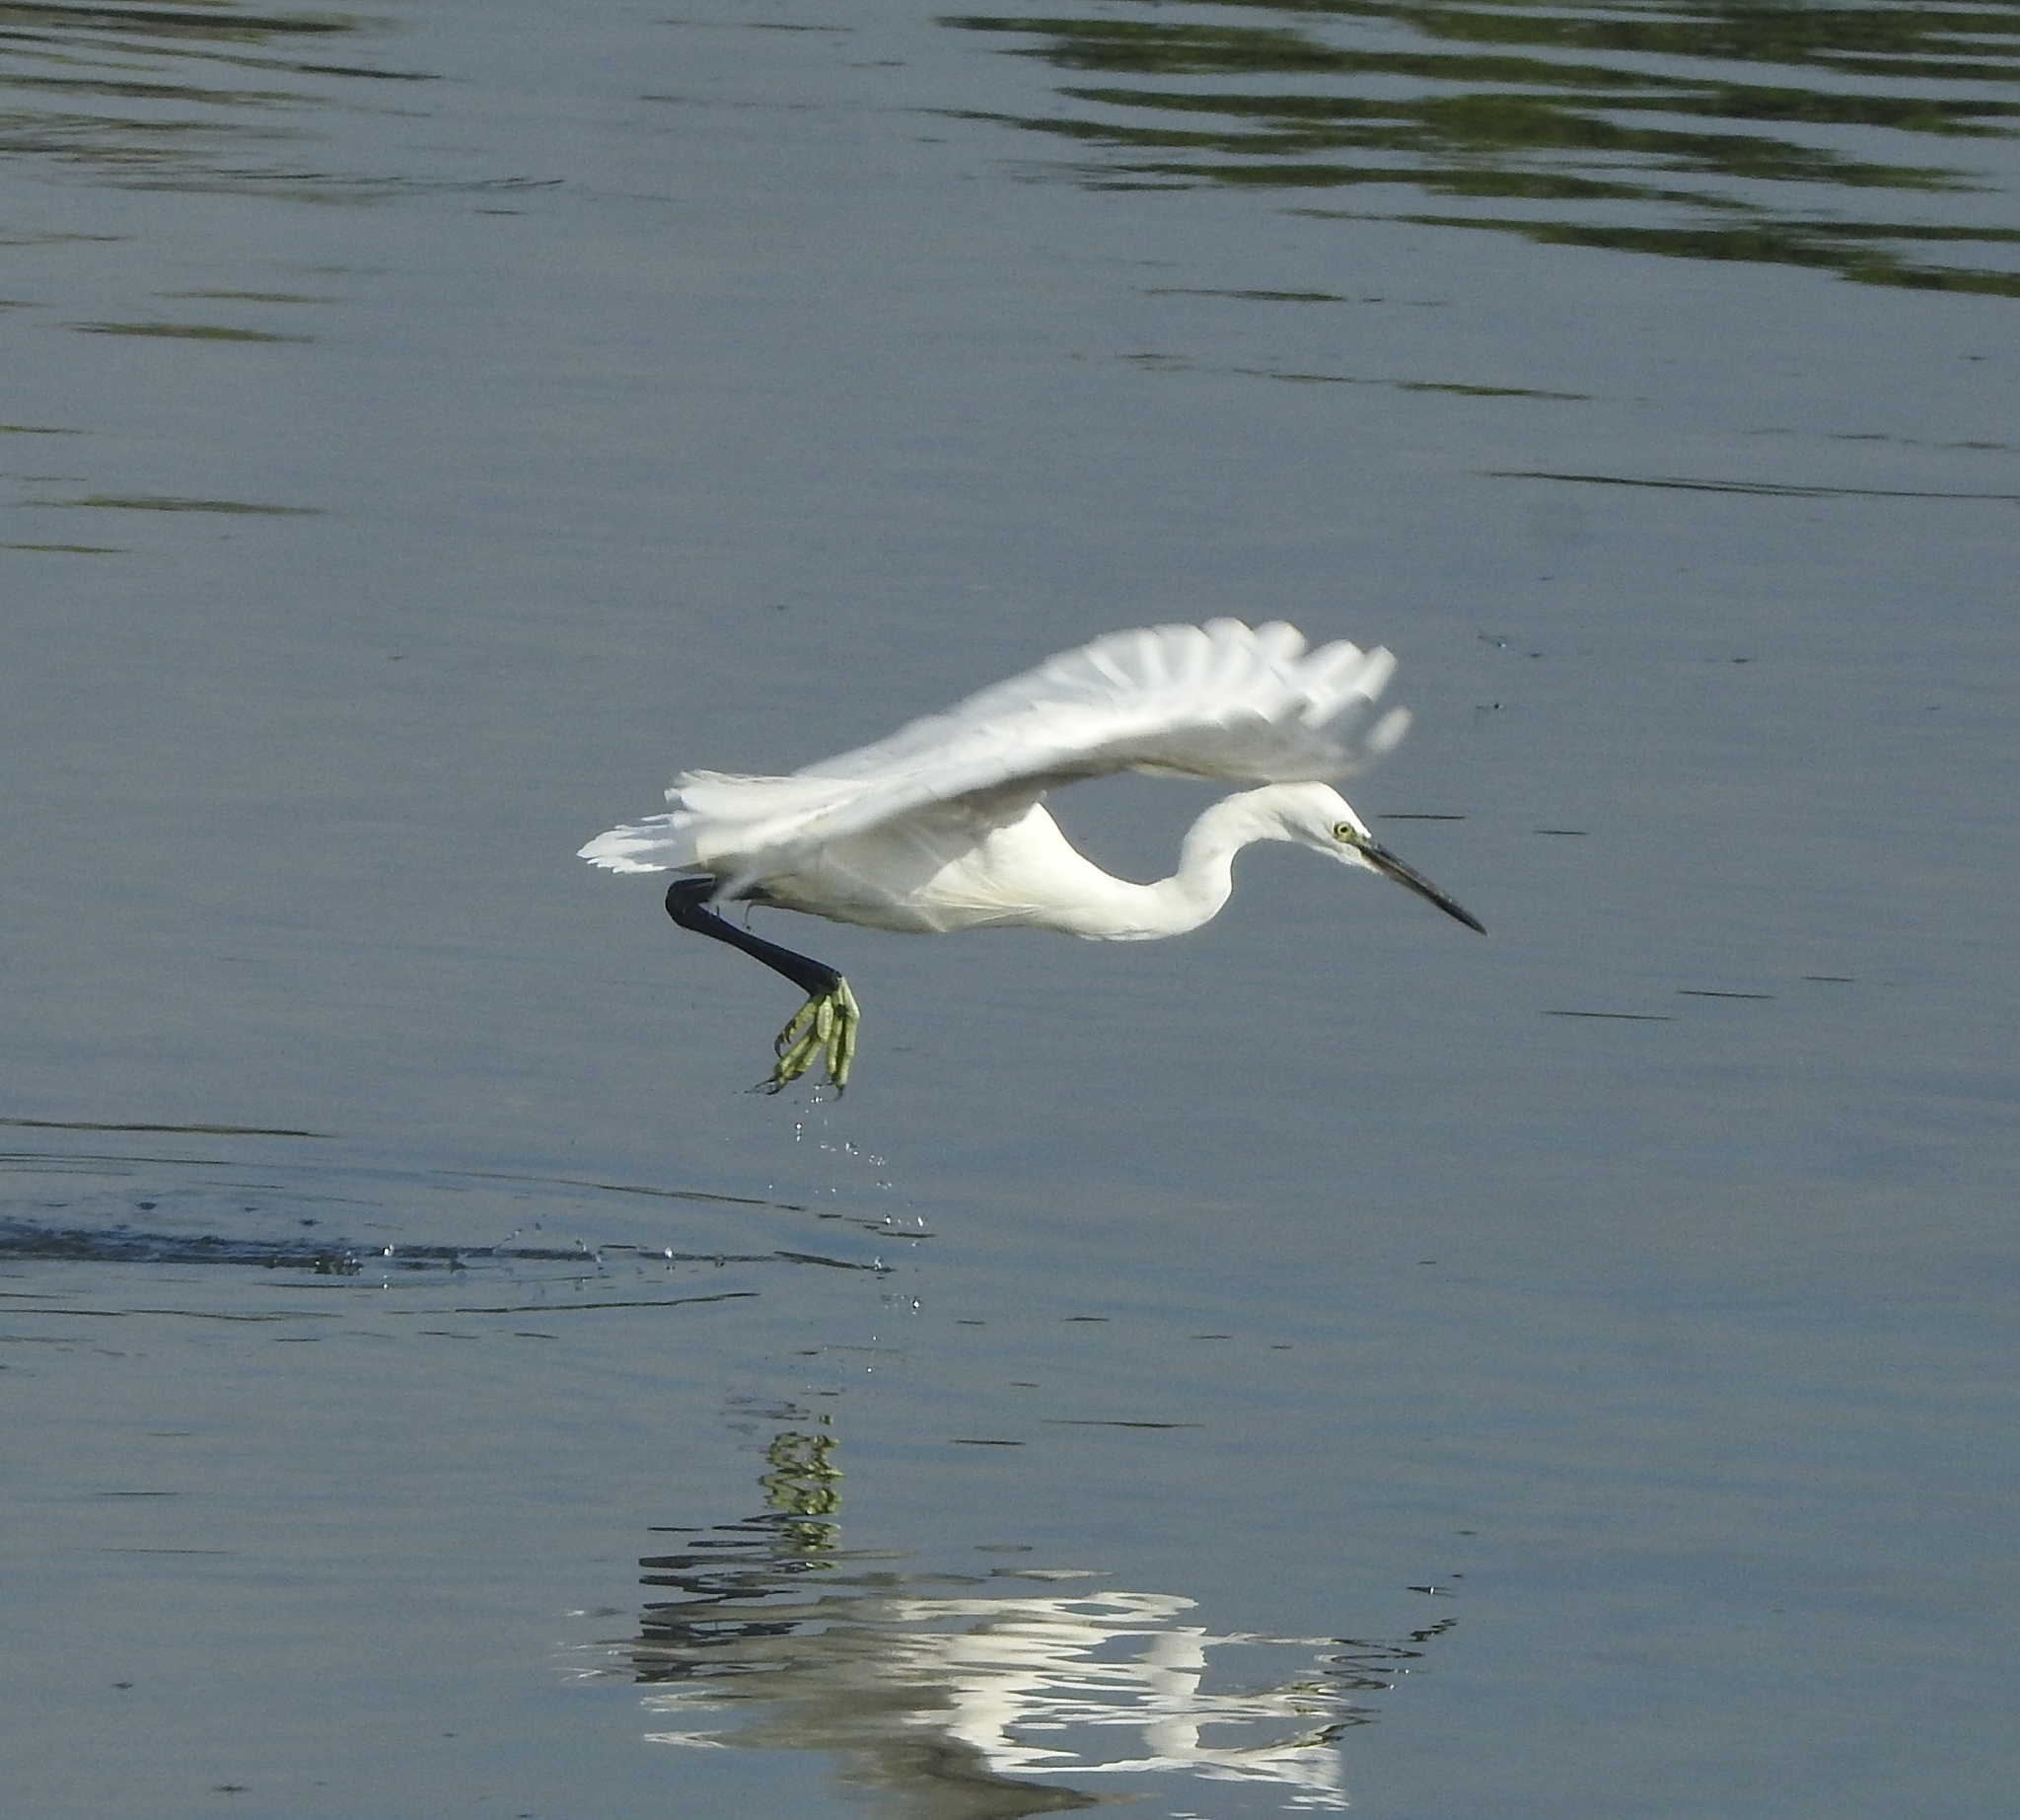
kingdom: Animalia
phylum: Chordata
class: Aves
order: Pelecaniformes
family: Ardeidae
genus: Egretta
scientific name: Egretta garzetta
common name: Little egret
